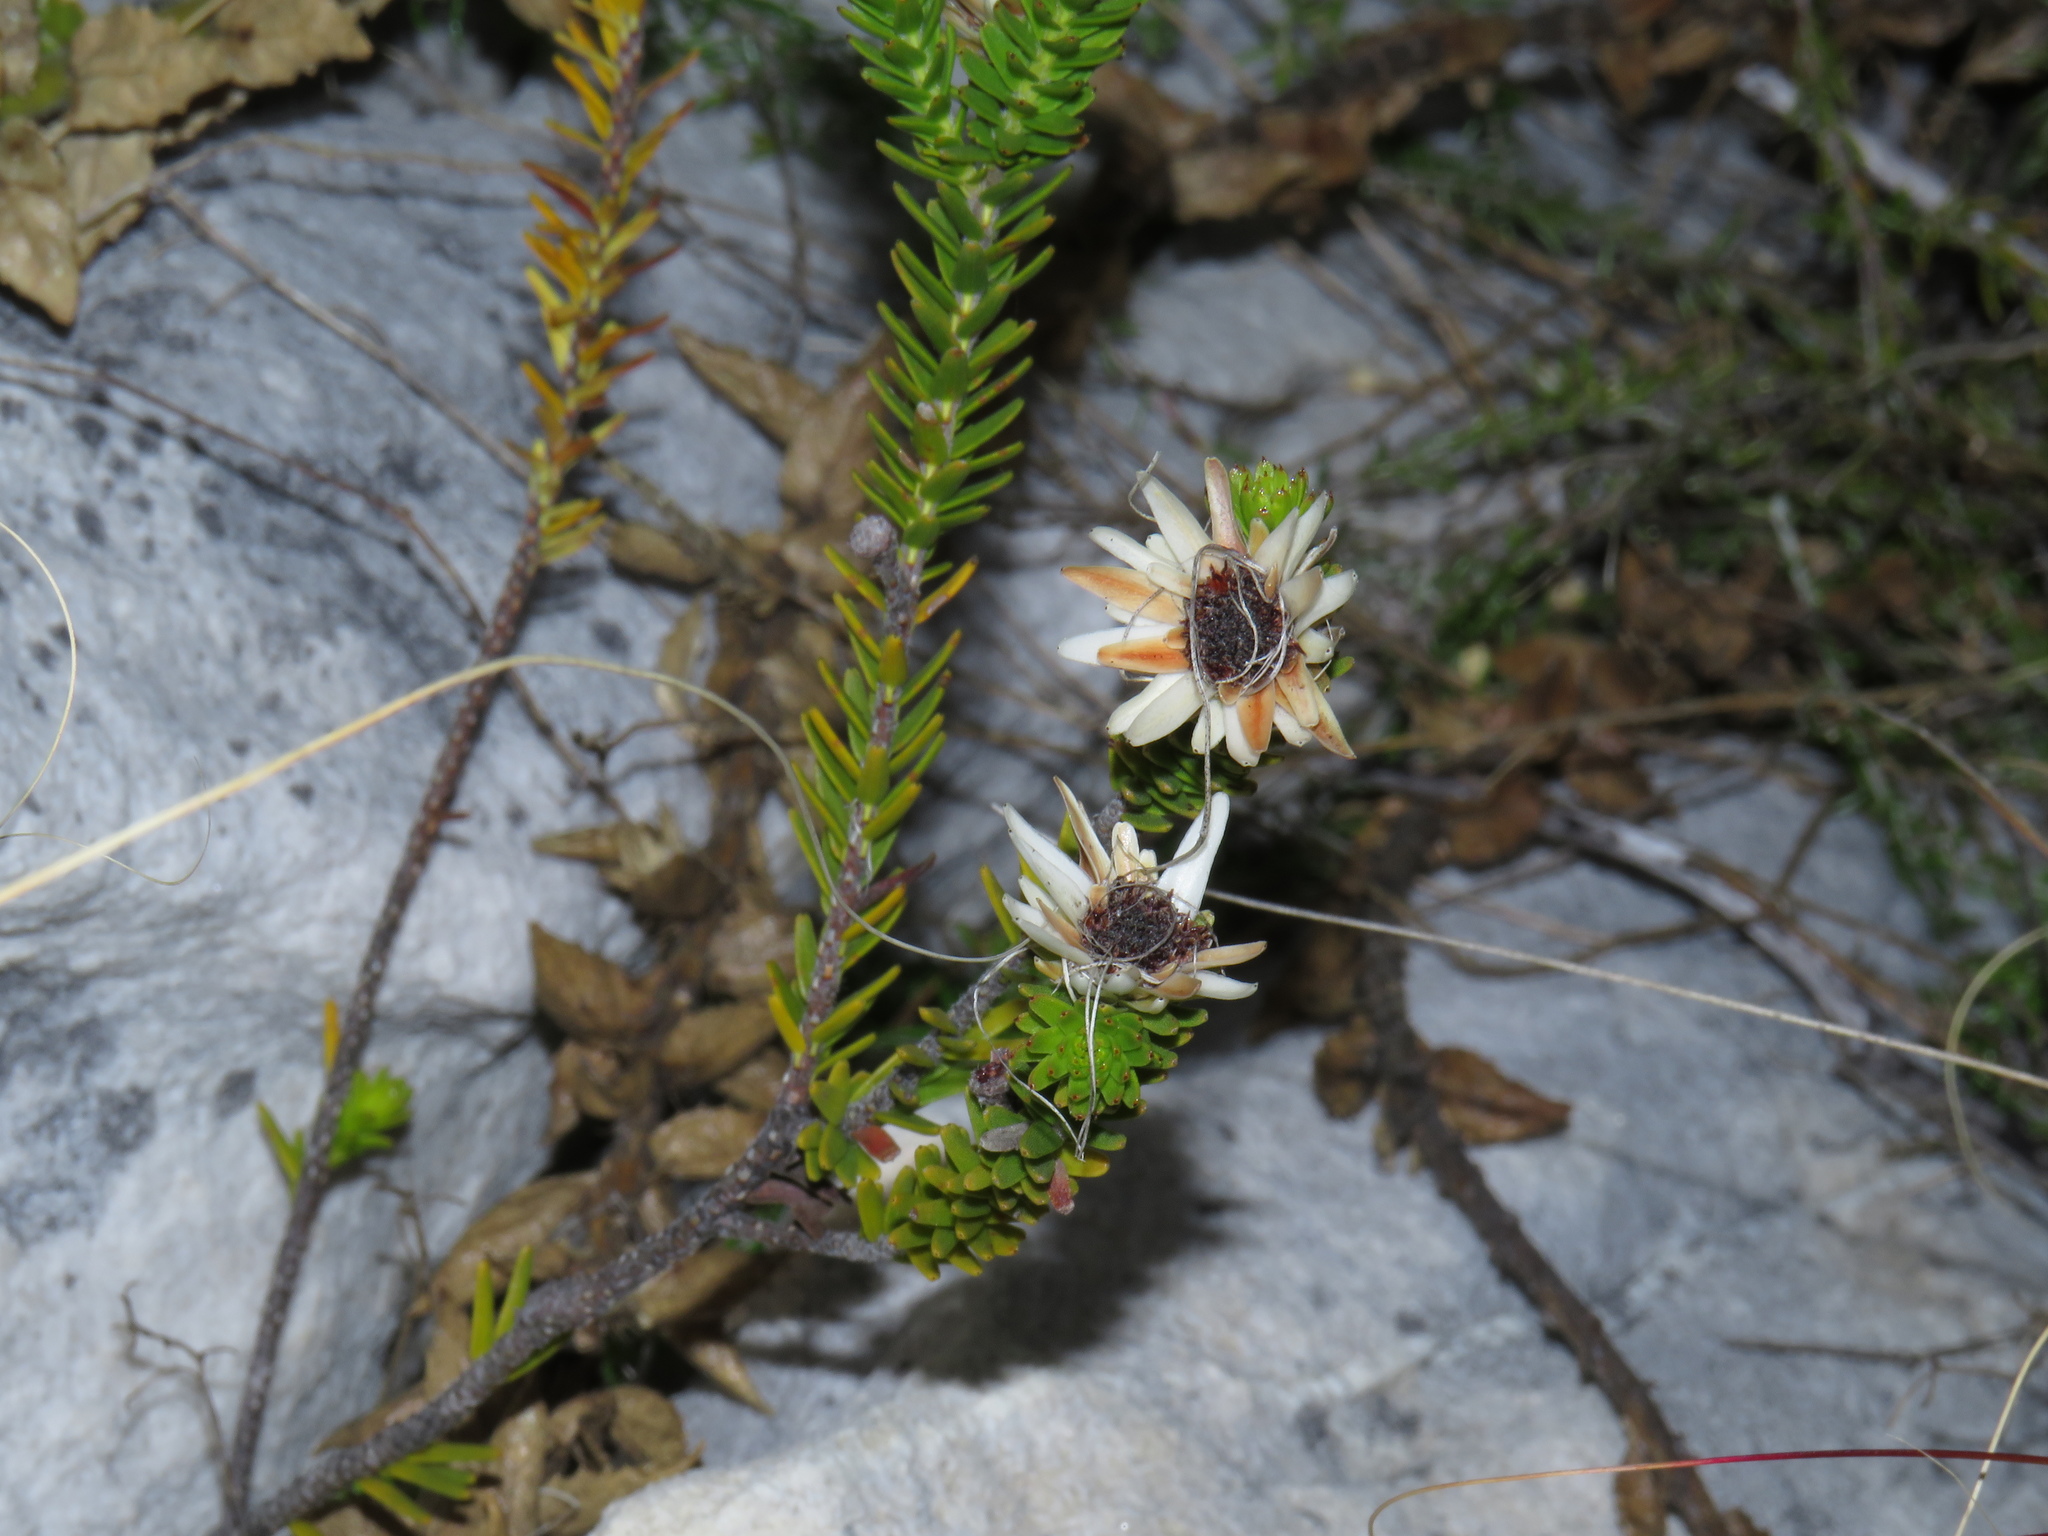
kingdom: Plantae
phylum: Tracheophyta
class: Magnoliopsida
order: Bruniales
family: Bruniaceae
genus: Staavia
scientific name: Staavia dodii
